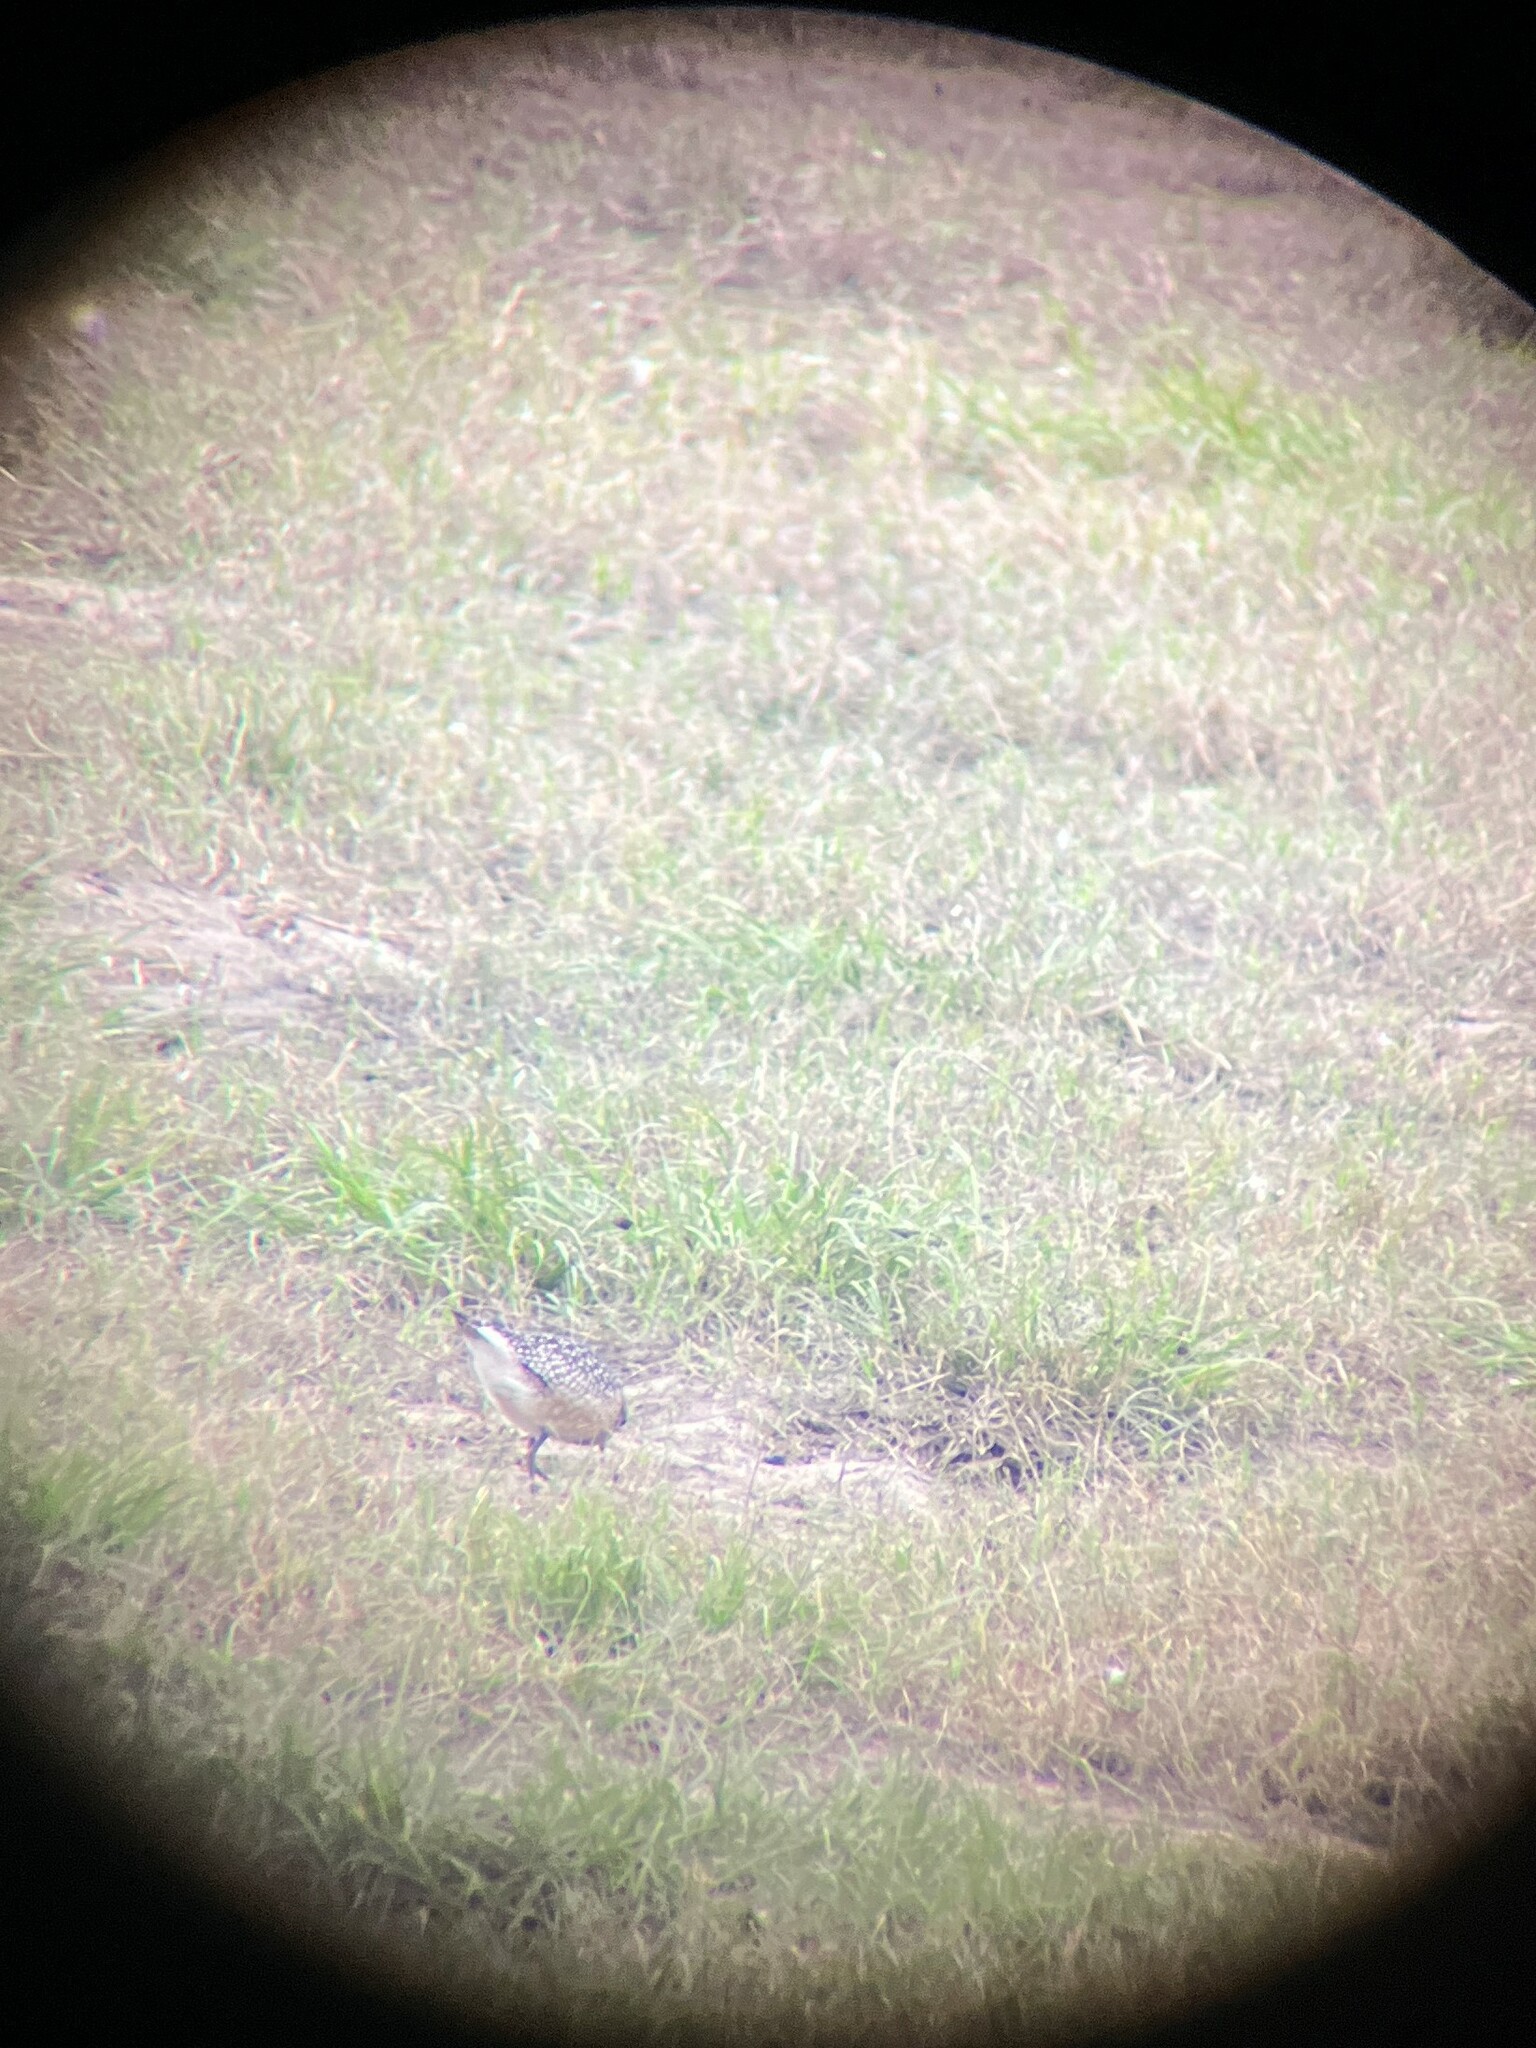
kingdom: Animalia
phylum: Chordata
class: Aves
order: Charadriiformes
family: Charadriidae
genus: Pluvialis
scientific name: Pluvialis dominica
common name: American golden plover
